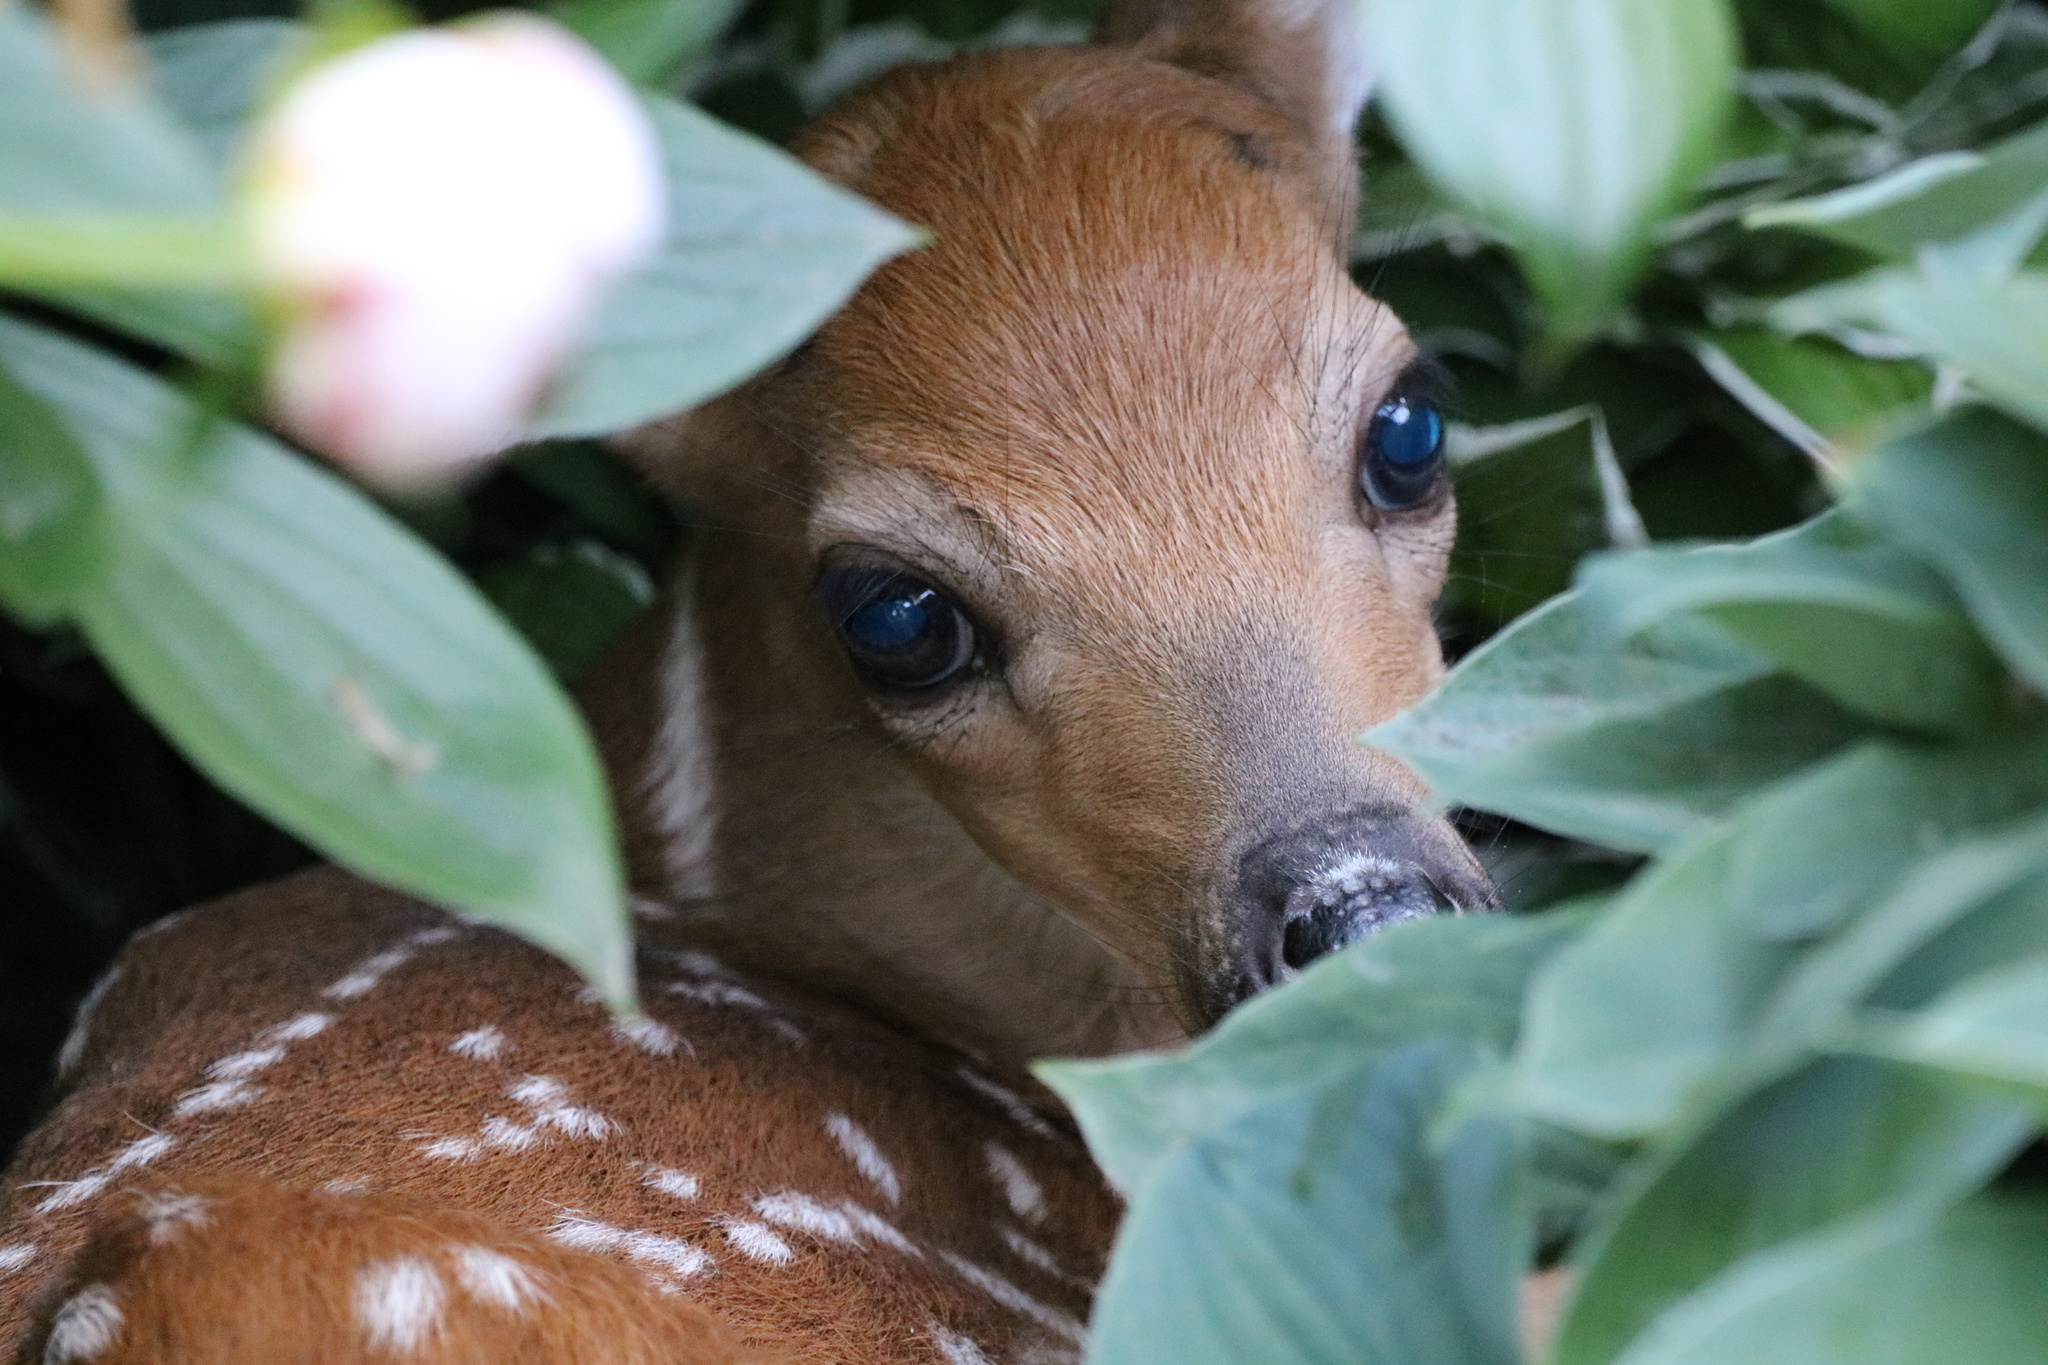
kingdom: Animalia
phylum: Chordata
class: Mammalia
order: Artiodactyla
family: Cervidae
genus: Odocoileus
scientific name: Odocoileus virginianus
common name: White-tailed deer
